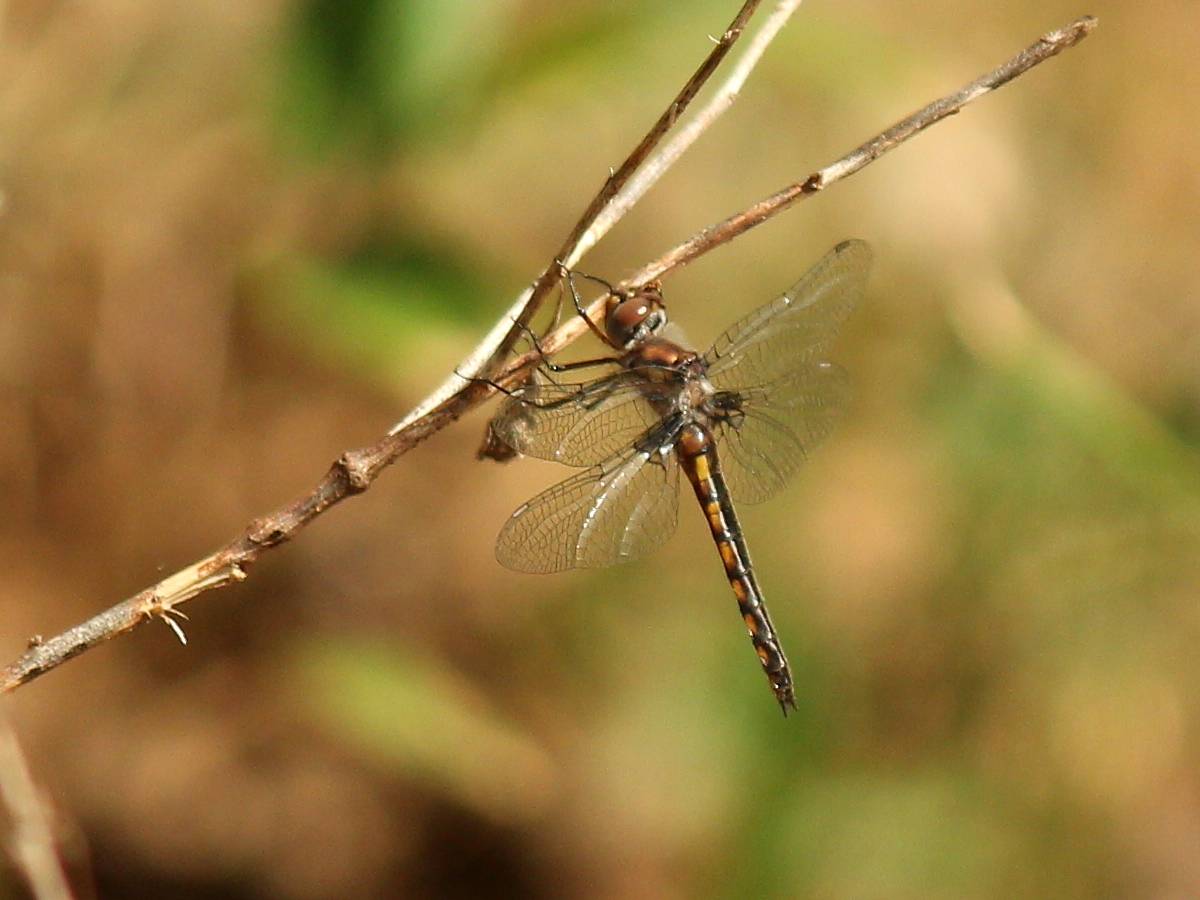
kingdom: Animalia
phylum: Arthropoda
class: Insecta
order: Odonata
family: Corduliidae
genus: Epitheca
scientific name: Epitheca cynosura
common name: Common baskettail
